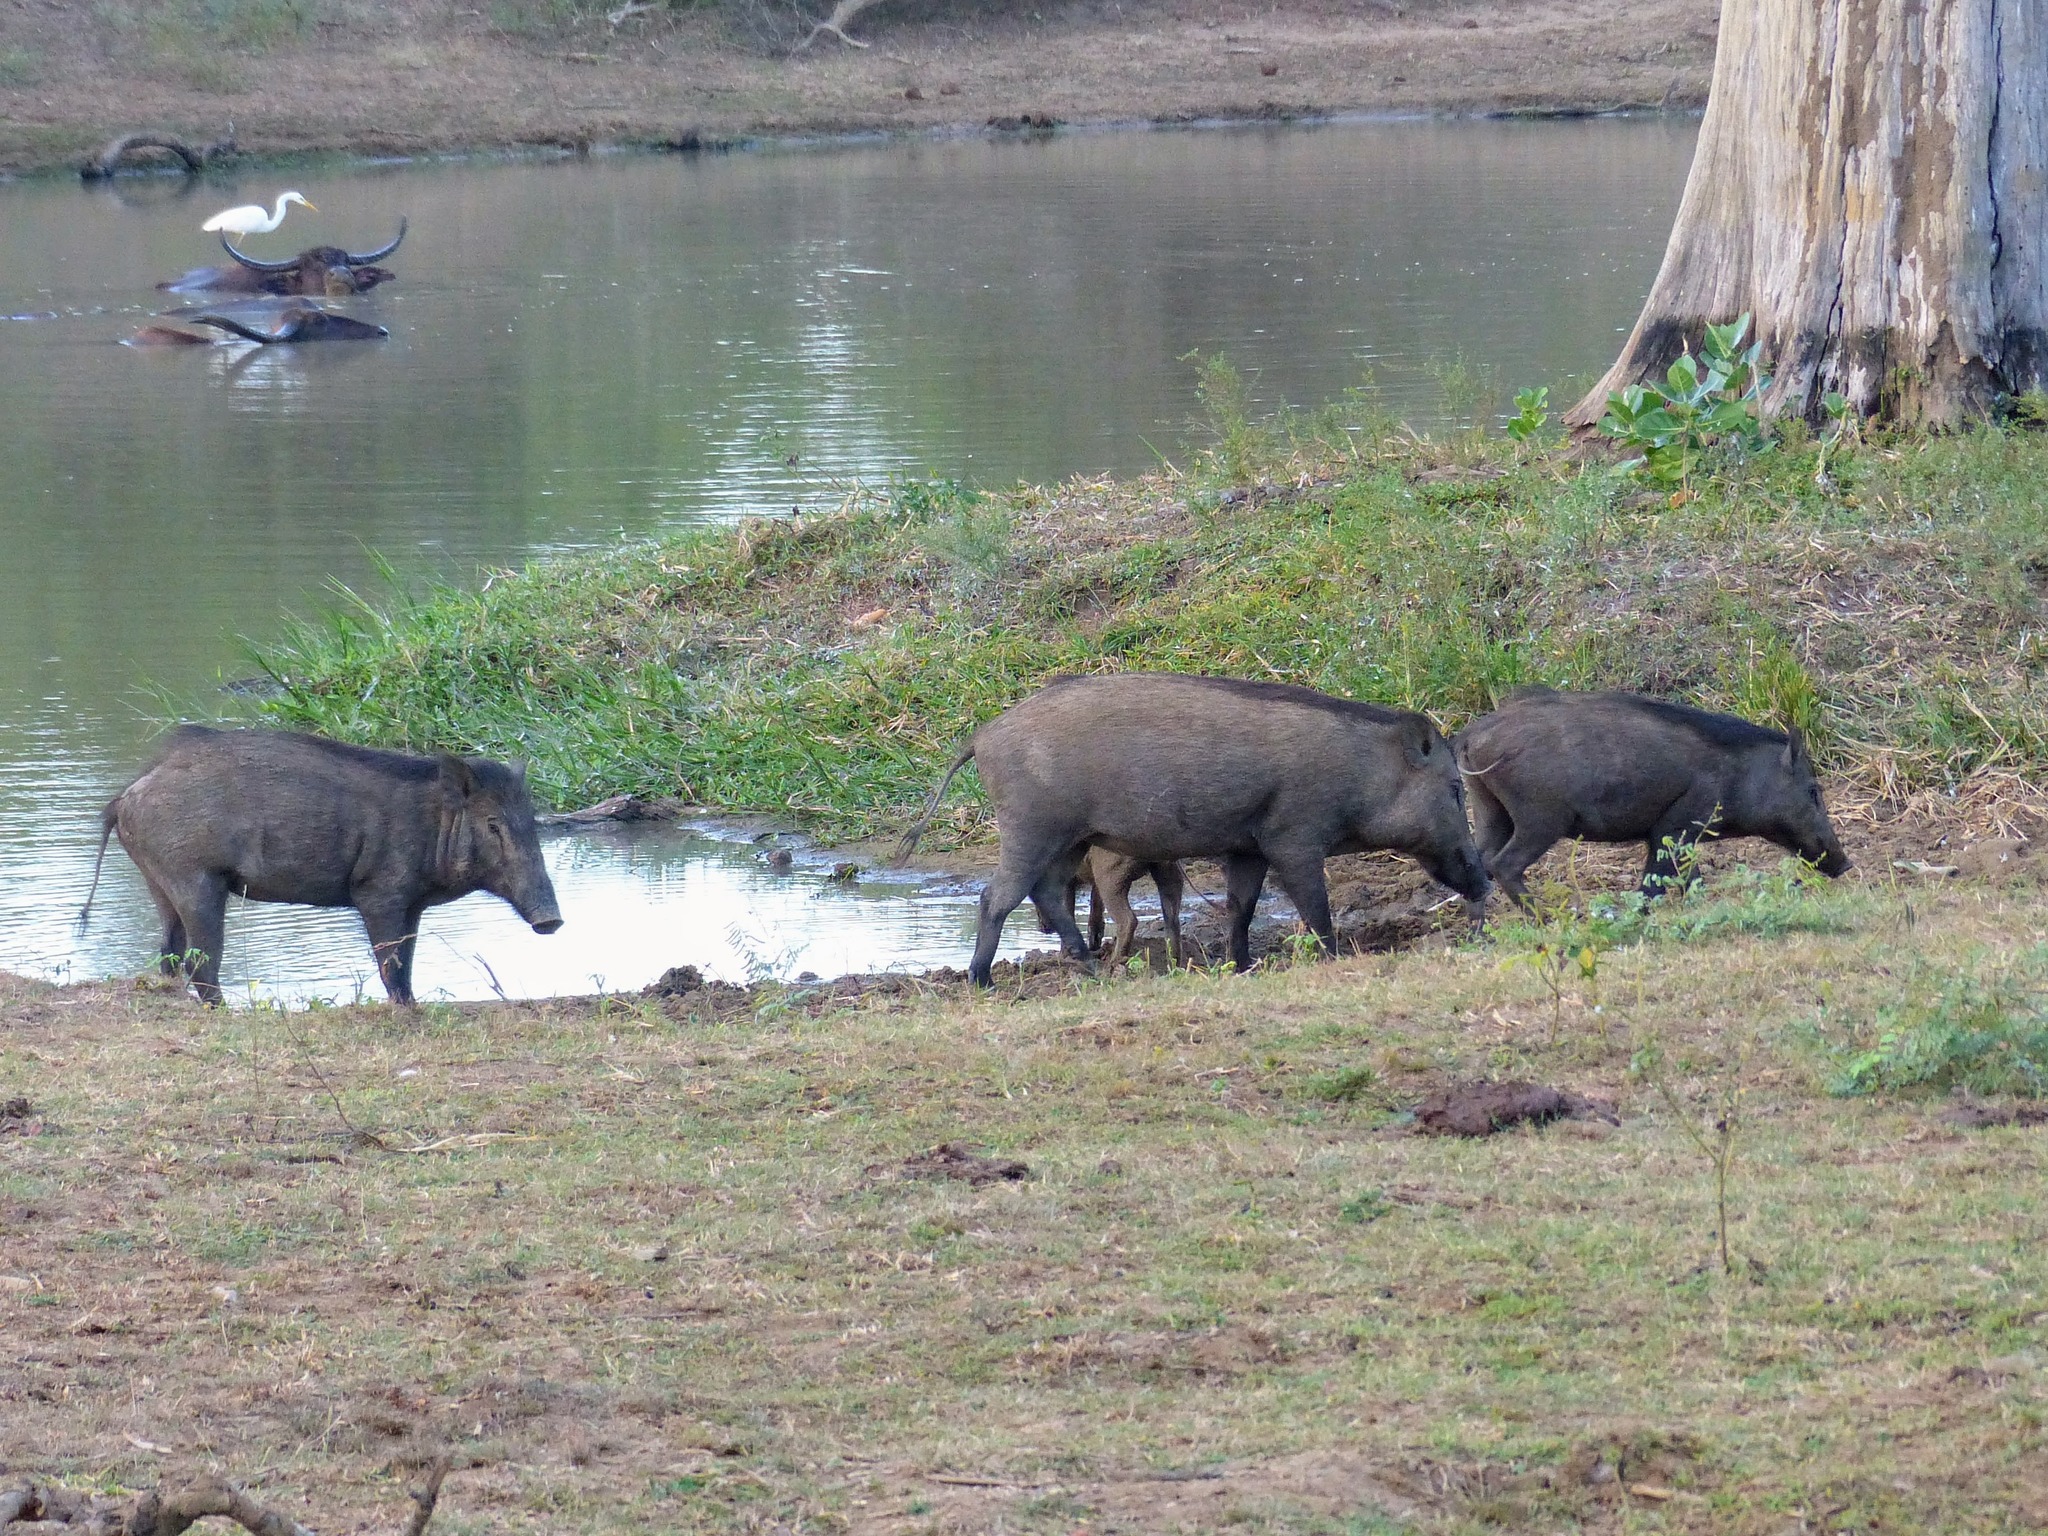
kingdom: Animalia
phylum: Chordata
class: Mammalia
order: Artiodactyla
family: Suidae
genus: Sus
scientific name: Sus scrofa
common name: Wild boar
